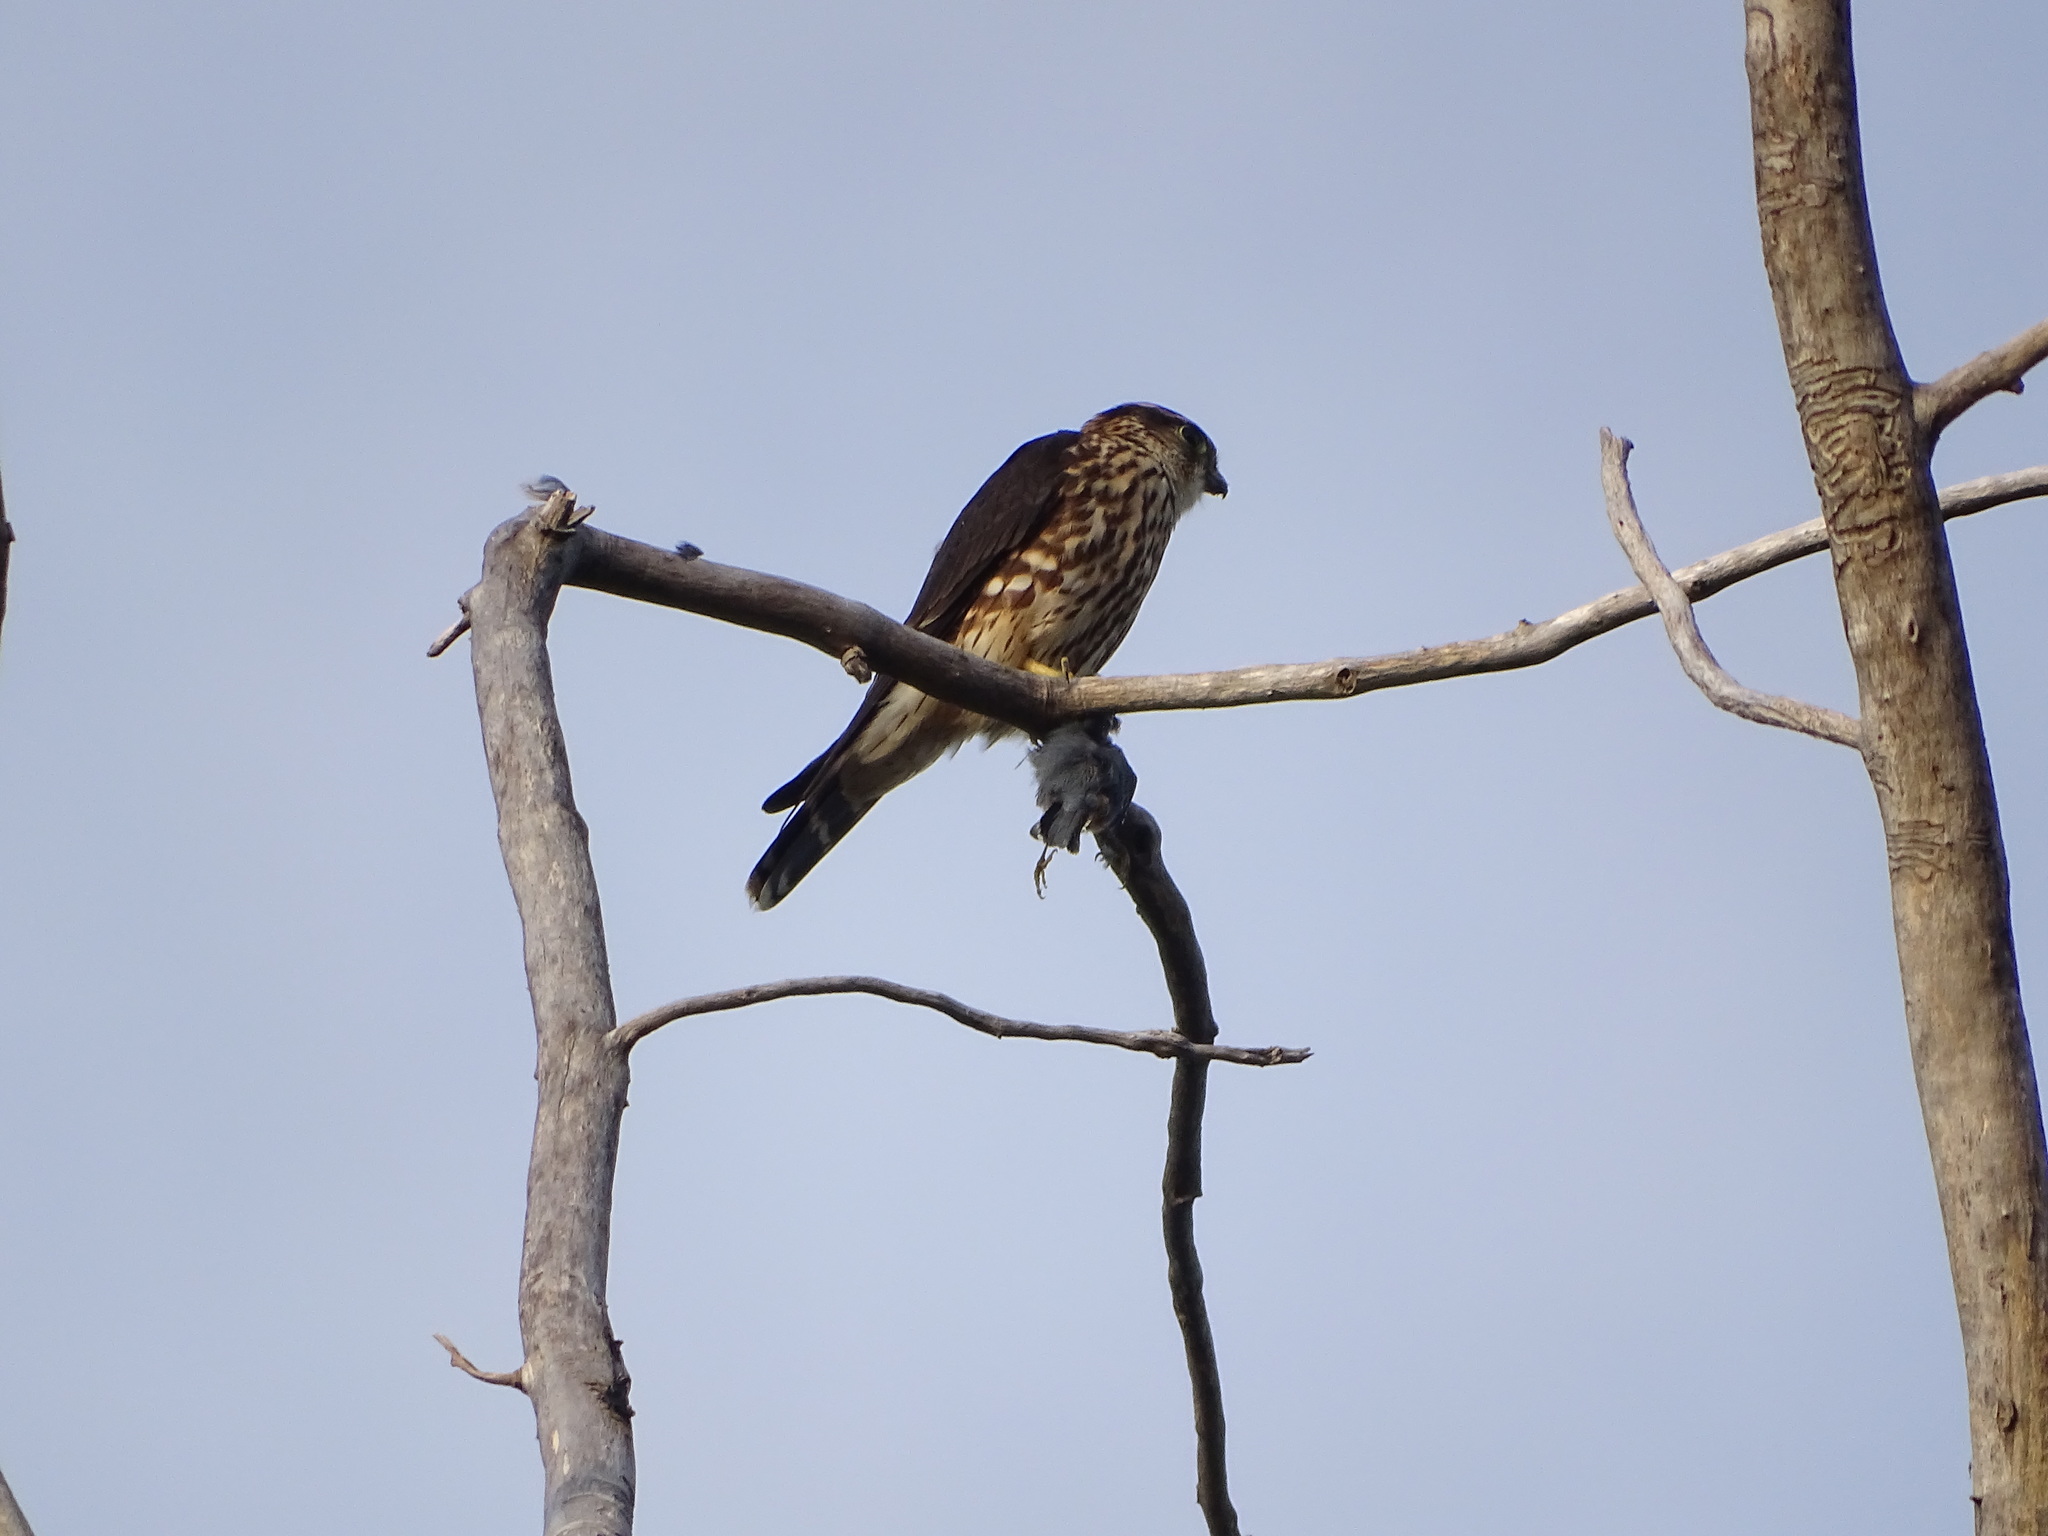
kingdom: Animalia
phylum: Chordata
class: Aves
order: Passeriformes
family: Sittidae
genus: Sitta
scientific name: Sitta carolinensis
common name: White-breasted nuthatch
